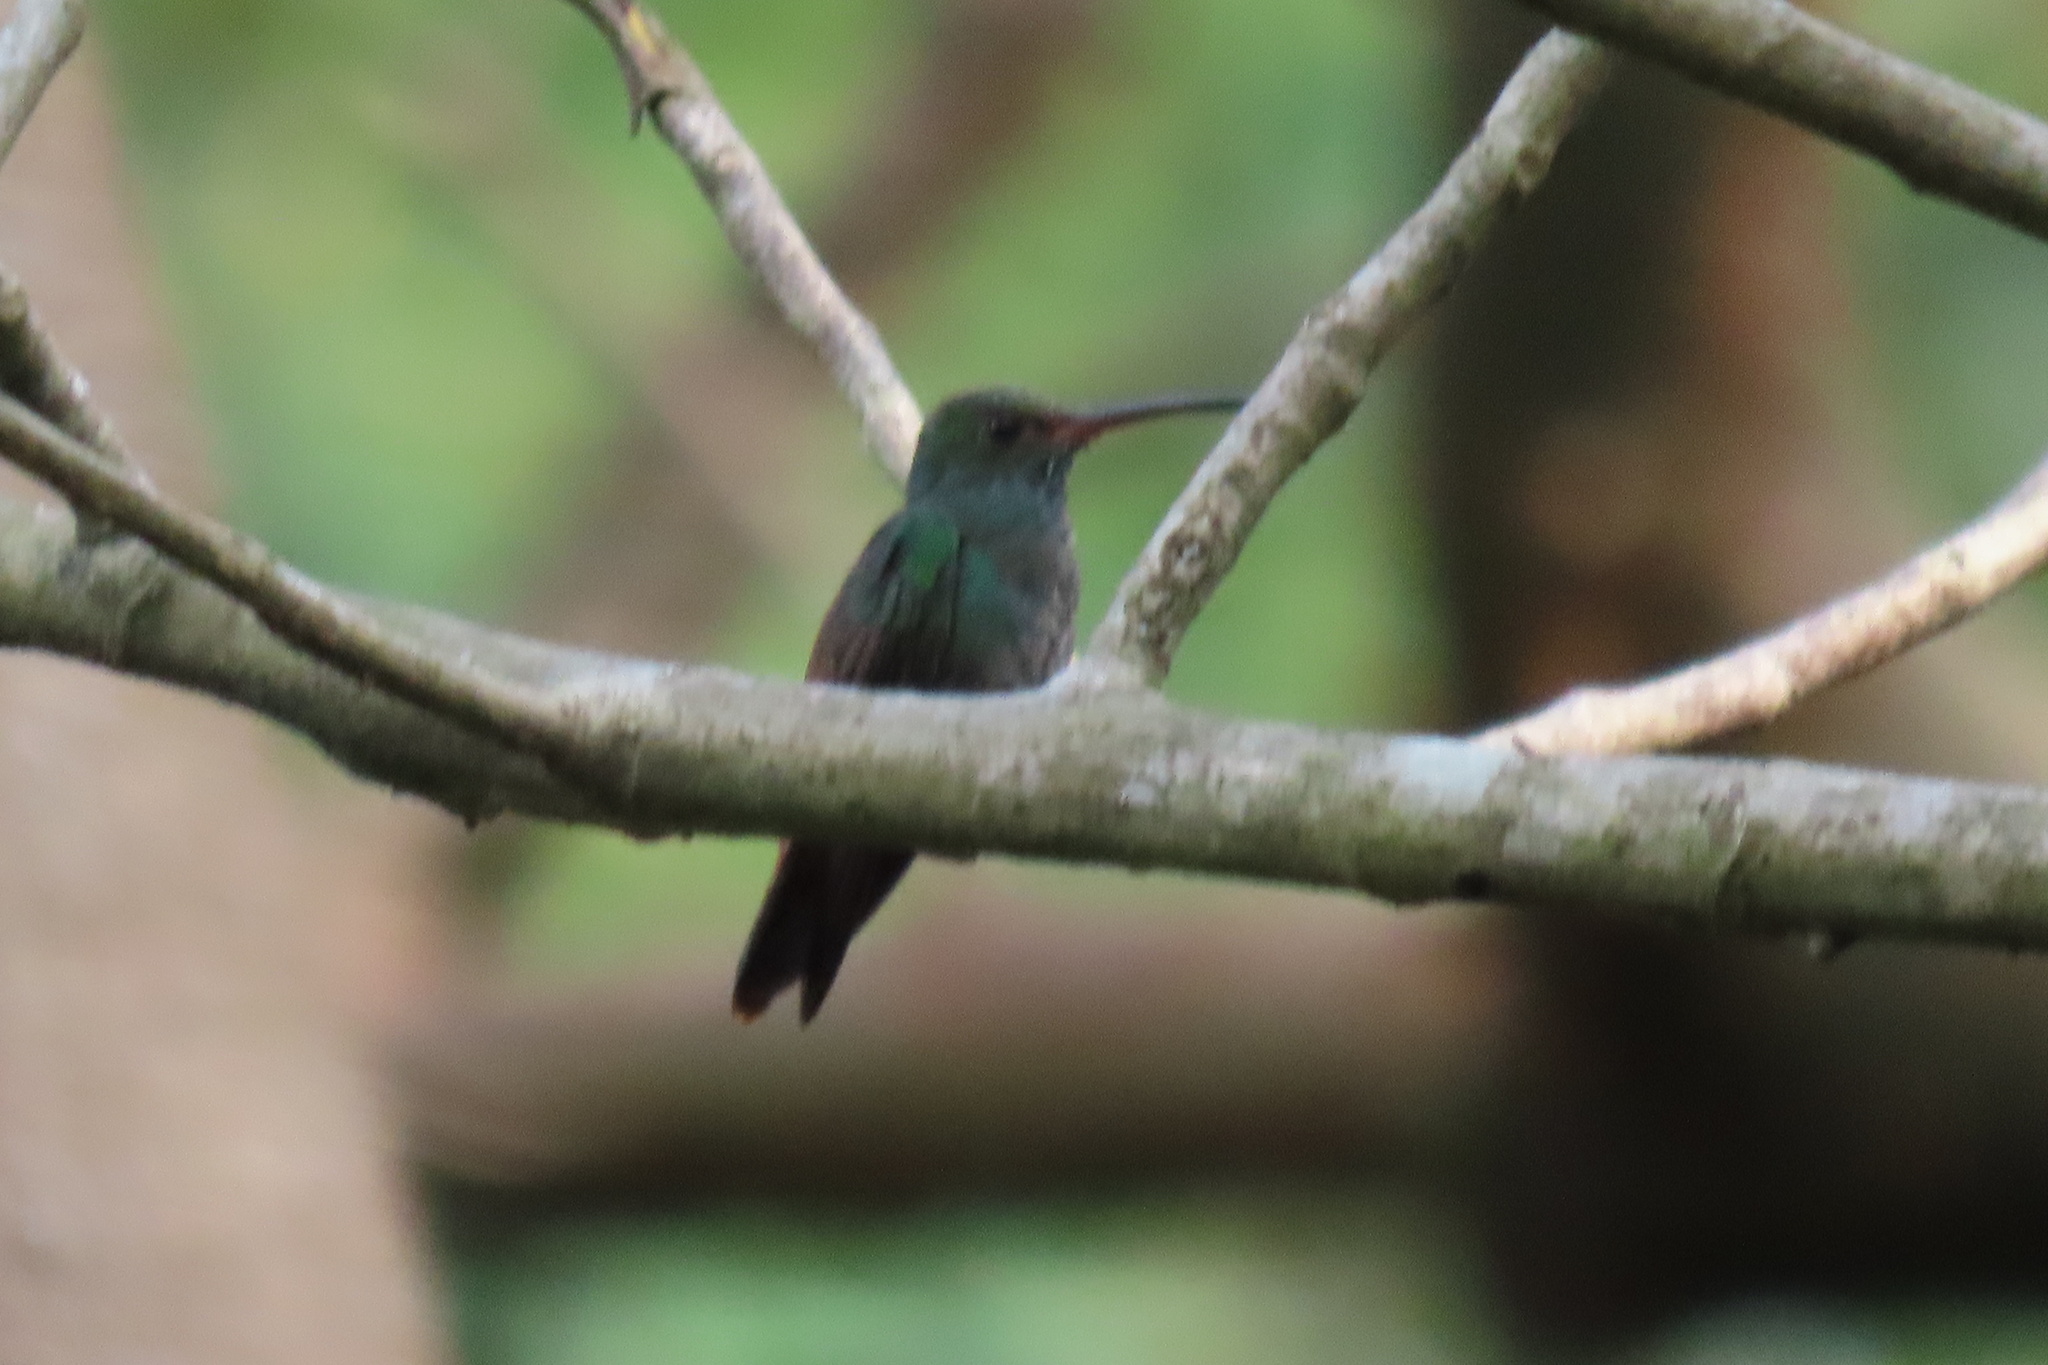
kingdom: Animalia
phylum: Chordata
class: Aves
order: Apodiformes
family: Trochilidae
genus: Amazilia
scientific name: Amazilia tzacatl
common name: Rufous-tailed hummingbird
